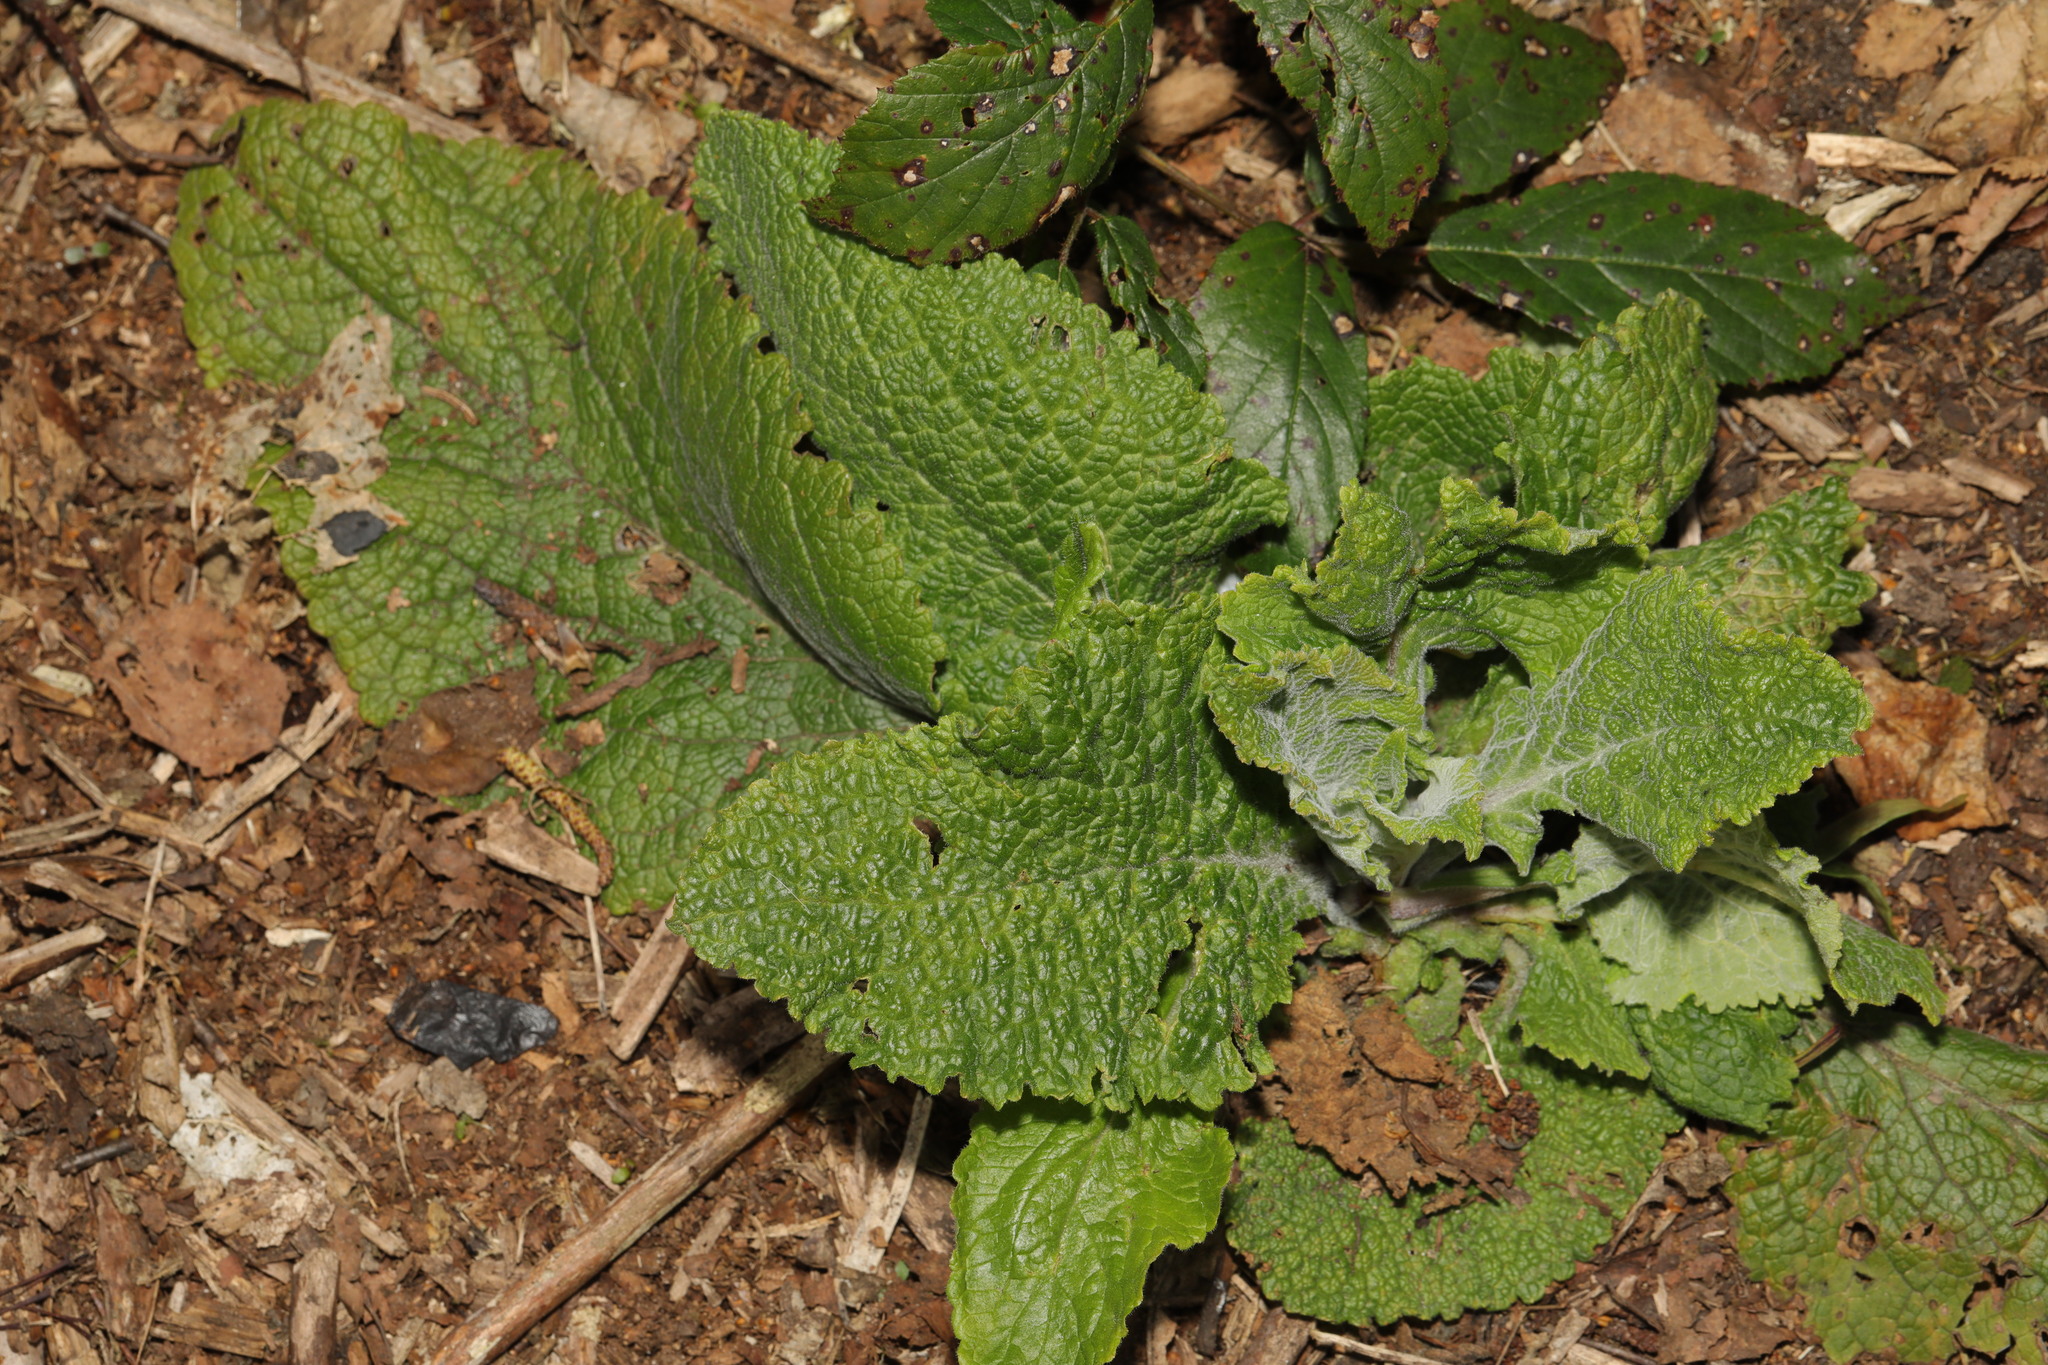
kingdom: Plantae
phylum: Tracheophyta
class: Magnoliopsida
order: Lamiales
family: Plantaginaceae
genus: Digitalis
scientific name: Digitalis purpurea
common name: Foxglove
